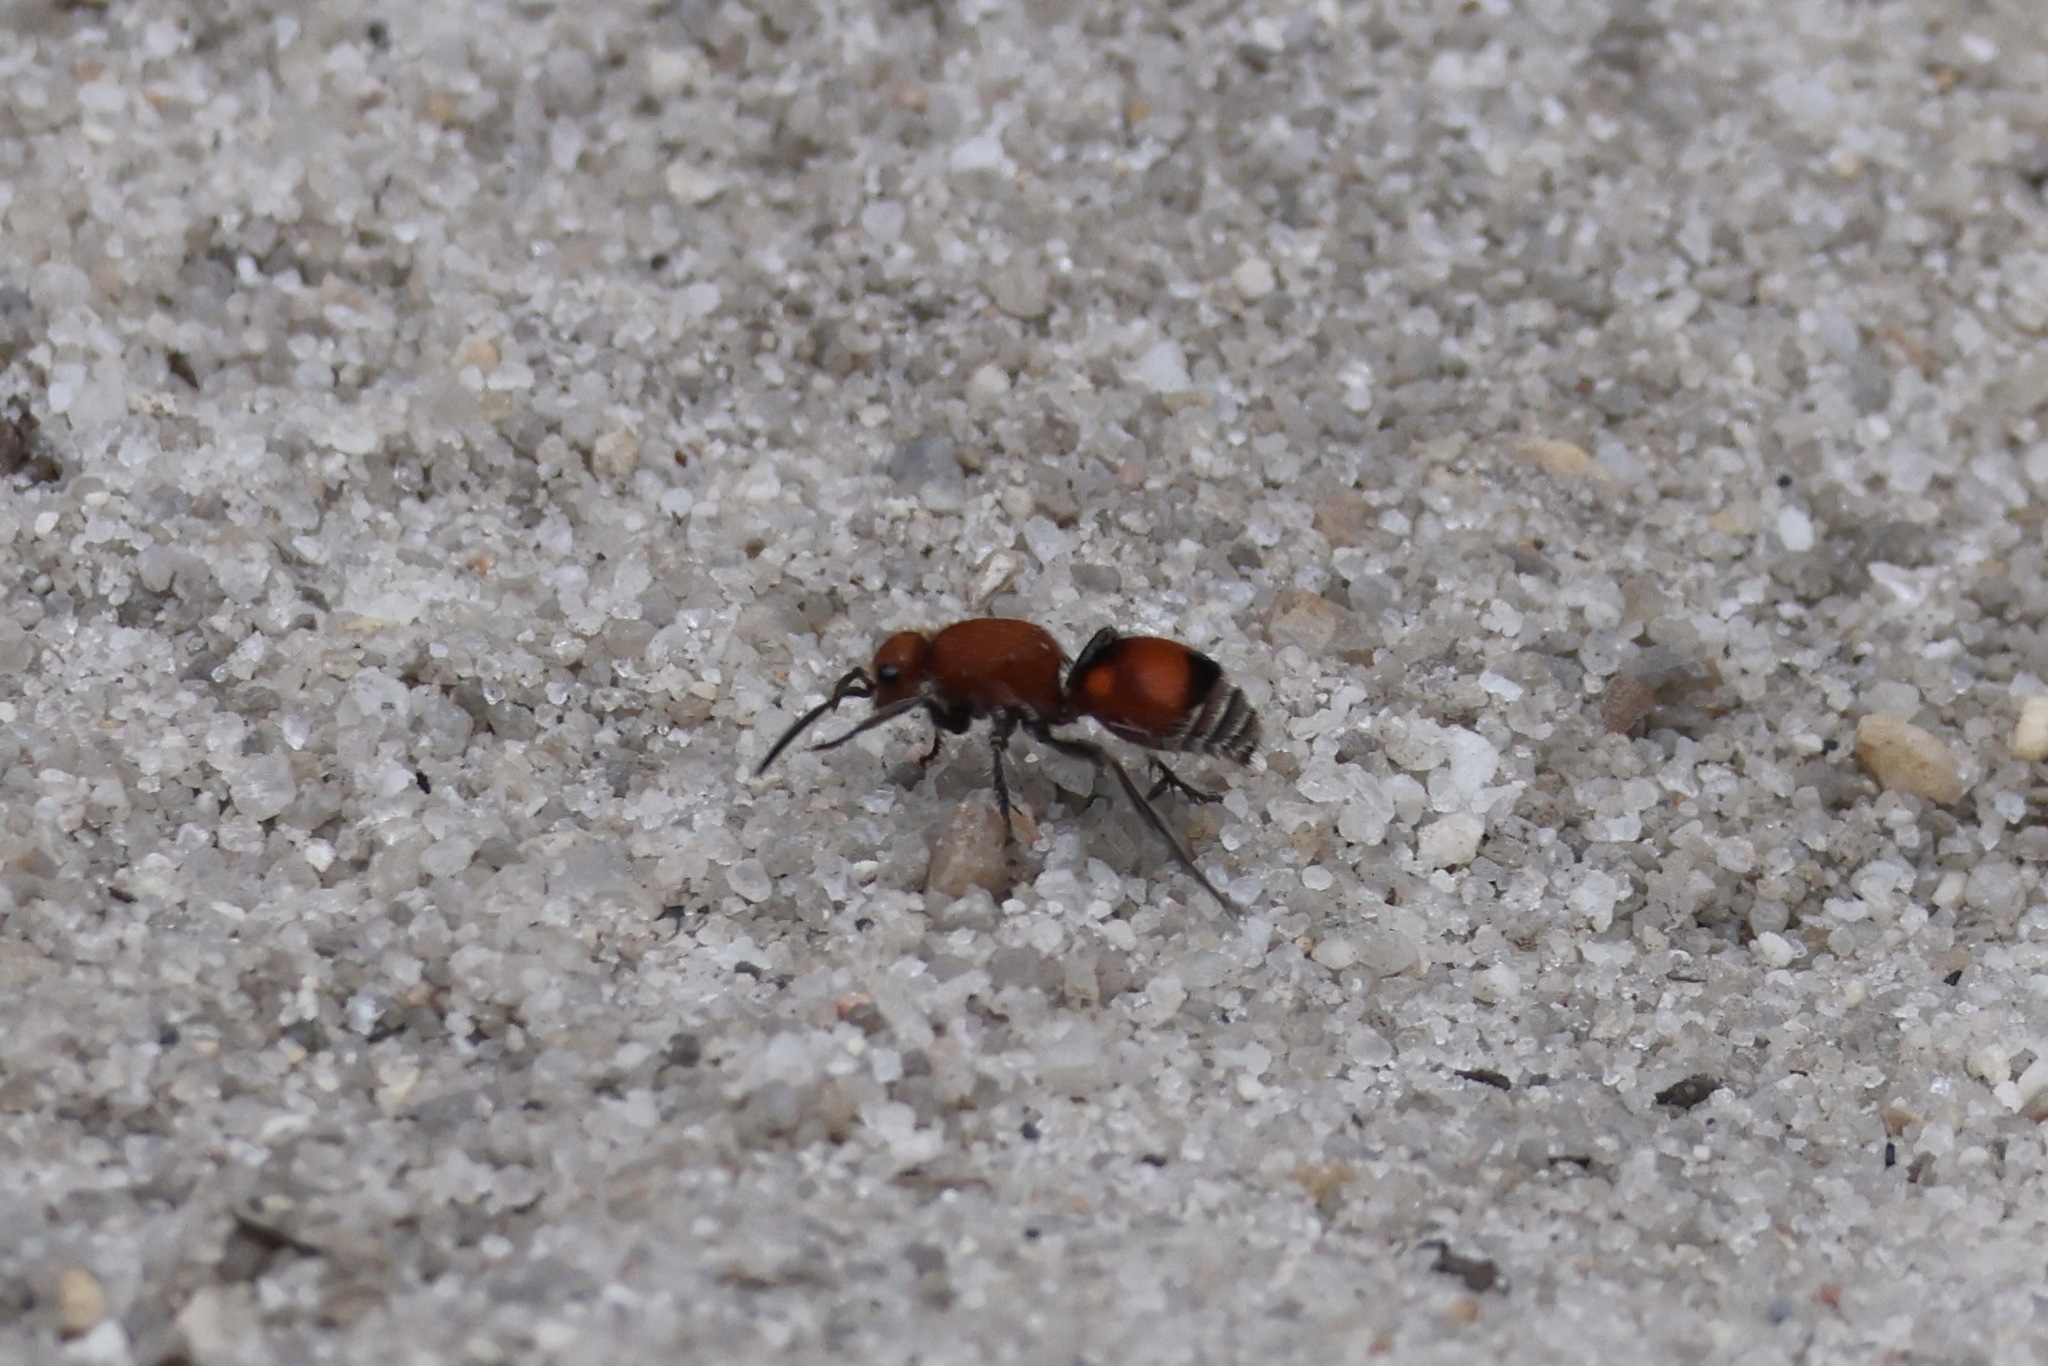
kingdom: Animalia
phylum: Arthropoda
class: Insecta
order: Hymenoptera
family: Mutillidae
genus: Dasymutilla
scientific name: Dasymutilla
